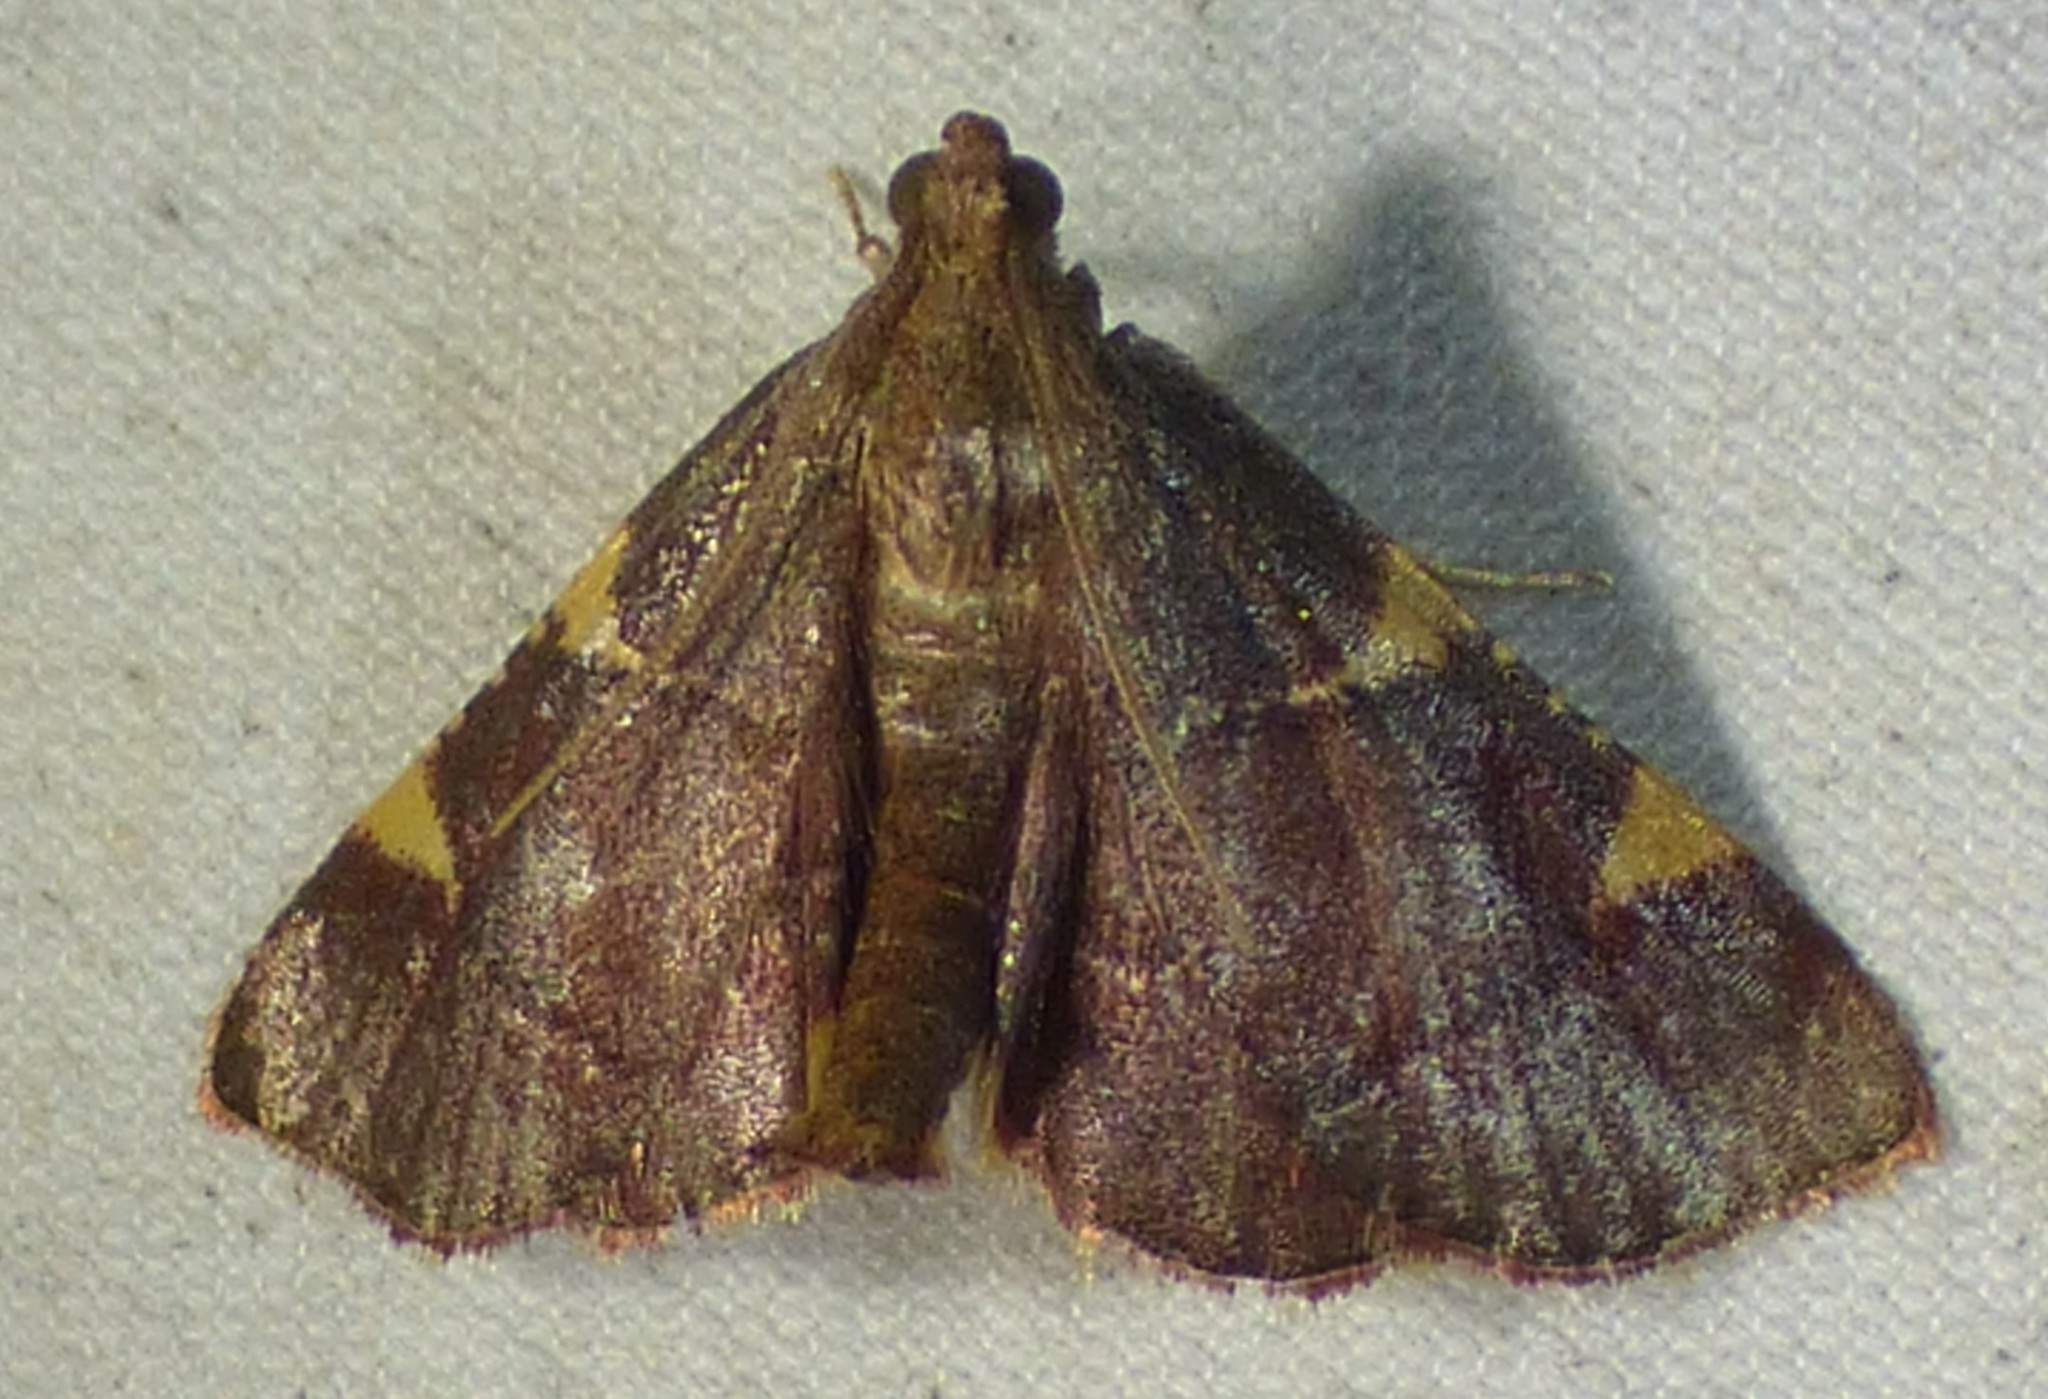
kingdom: Animalia
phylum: Arthropoda
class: Insecta
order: Lepidoptera
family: Pyralidae
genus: Hypsopygia
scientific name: Hypsopygia olinalis
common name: Yellow-fringed dolichomia moth
